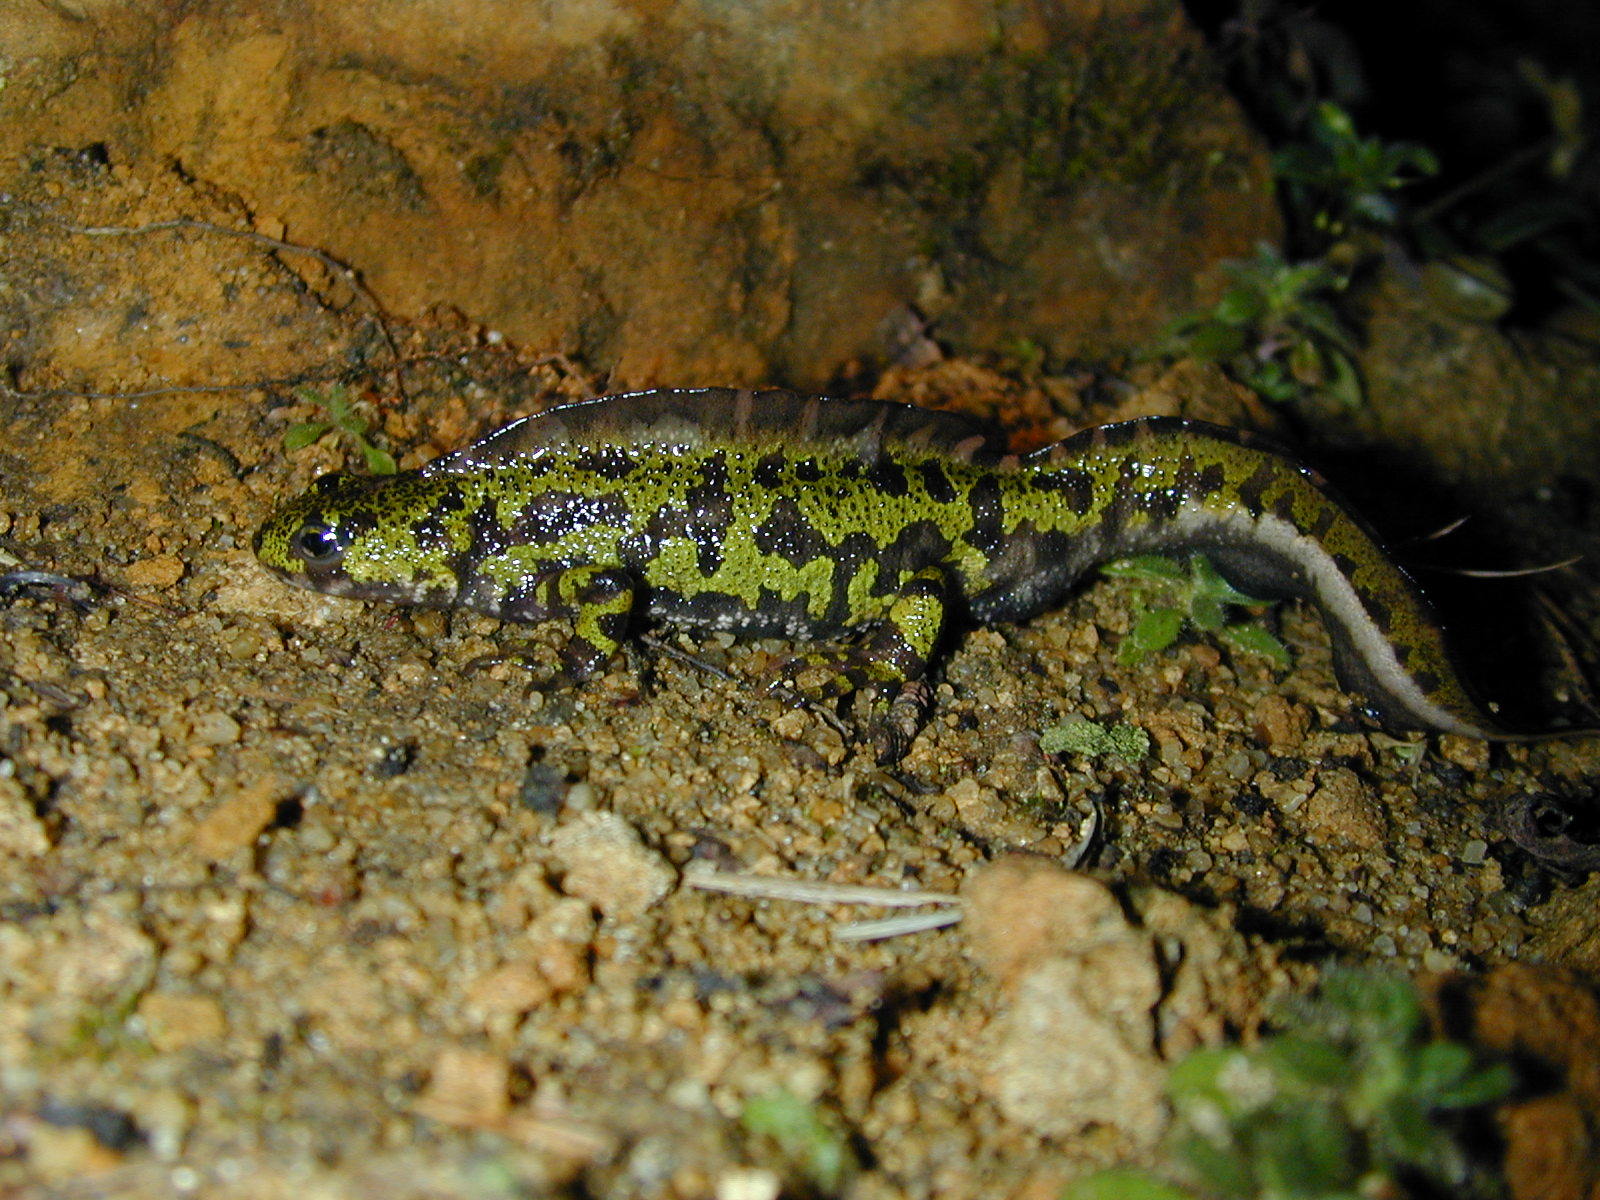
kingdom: Animalia
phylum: Chordata
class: Amphibia
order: Caudata
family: Salamandridae
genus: Triturus
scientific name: Triturus marmoratus
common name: Marbled newt
